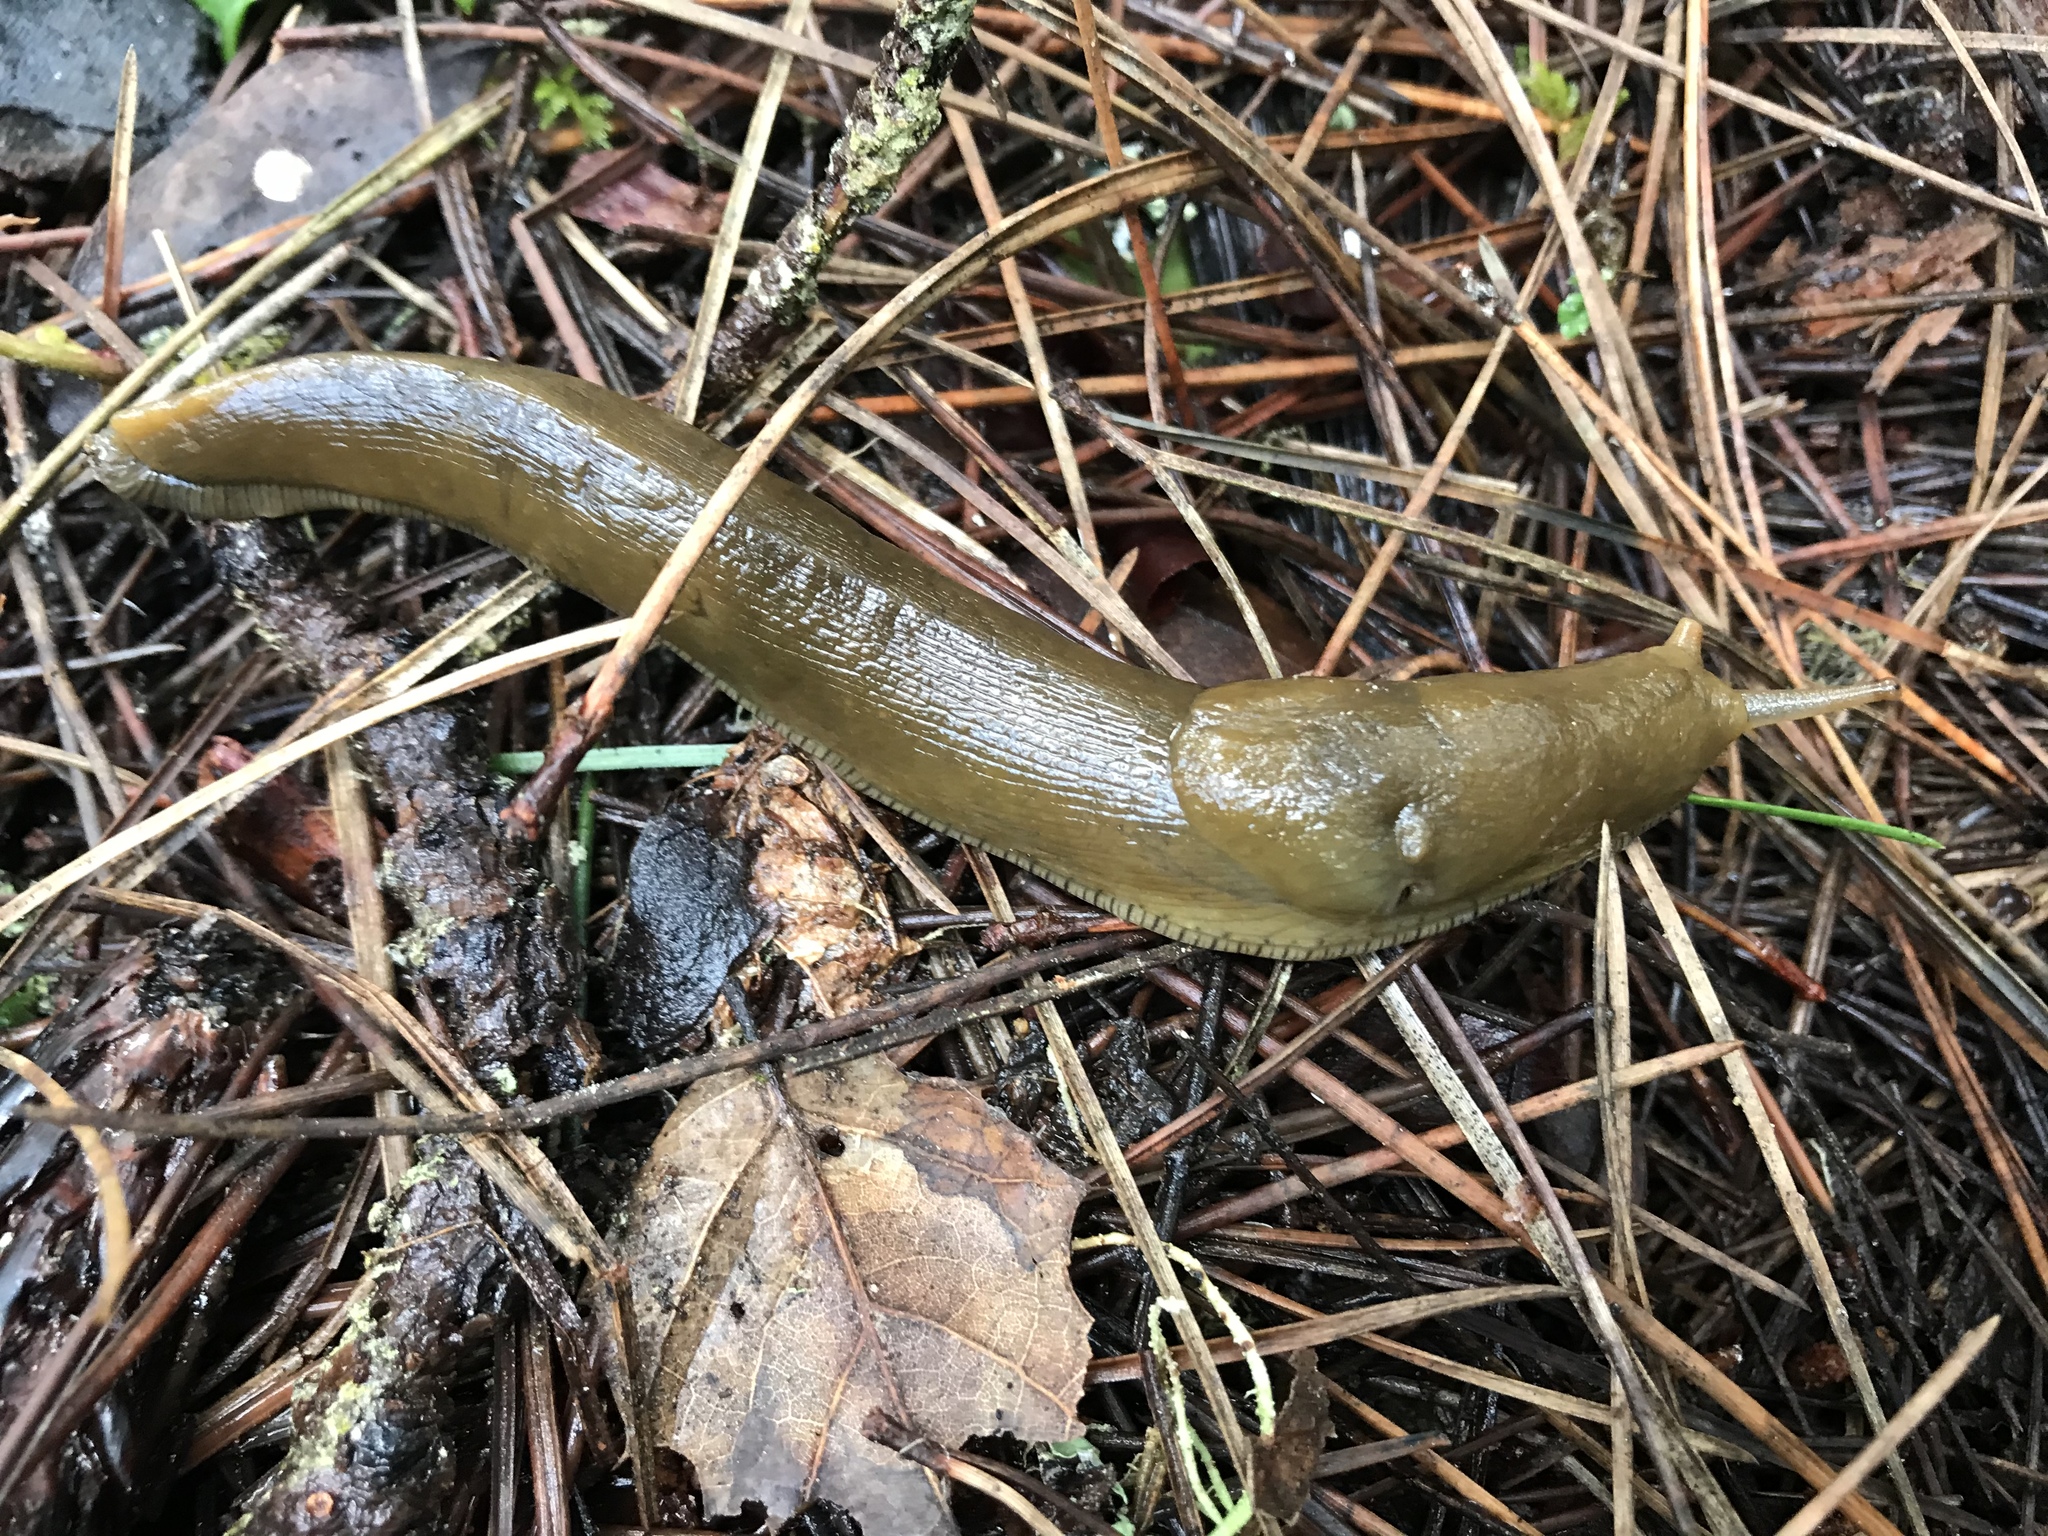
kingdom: Animalia
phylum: Mollusca
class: Gastropoda
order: Stylommatophora
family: Ariolimacidae
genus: Ariolimax
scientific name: Ariolimax buttoni
